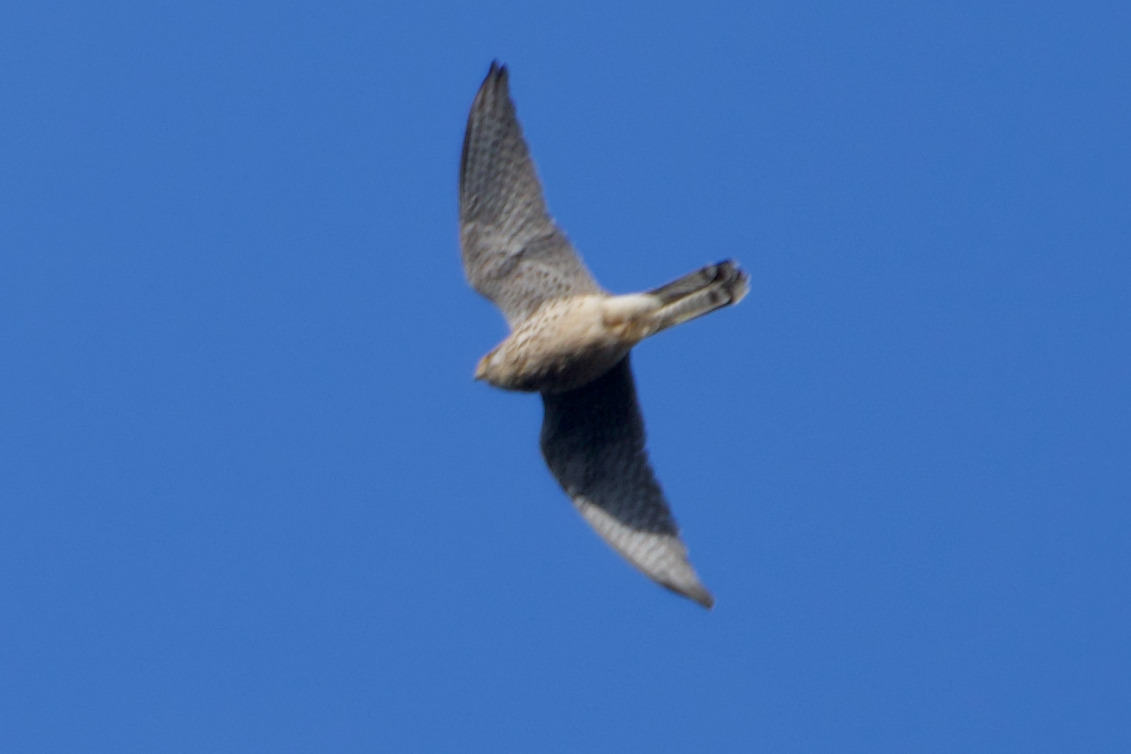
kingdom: Animalia
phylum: Chordata
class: Aves
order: Falconiformes
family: Falconidae
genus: Falco
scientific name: Falco tinnunculus
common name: Common kestrel
